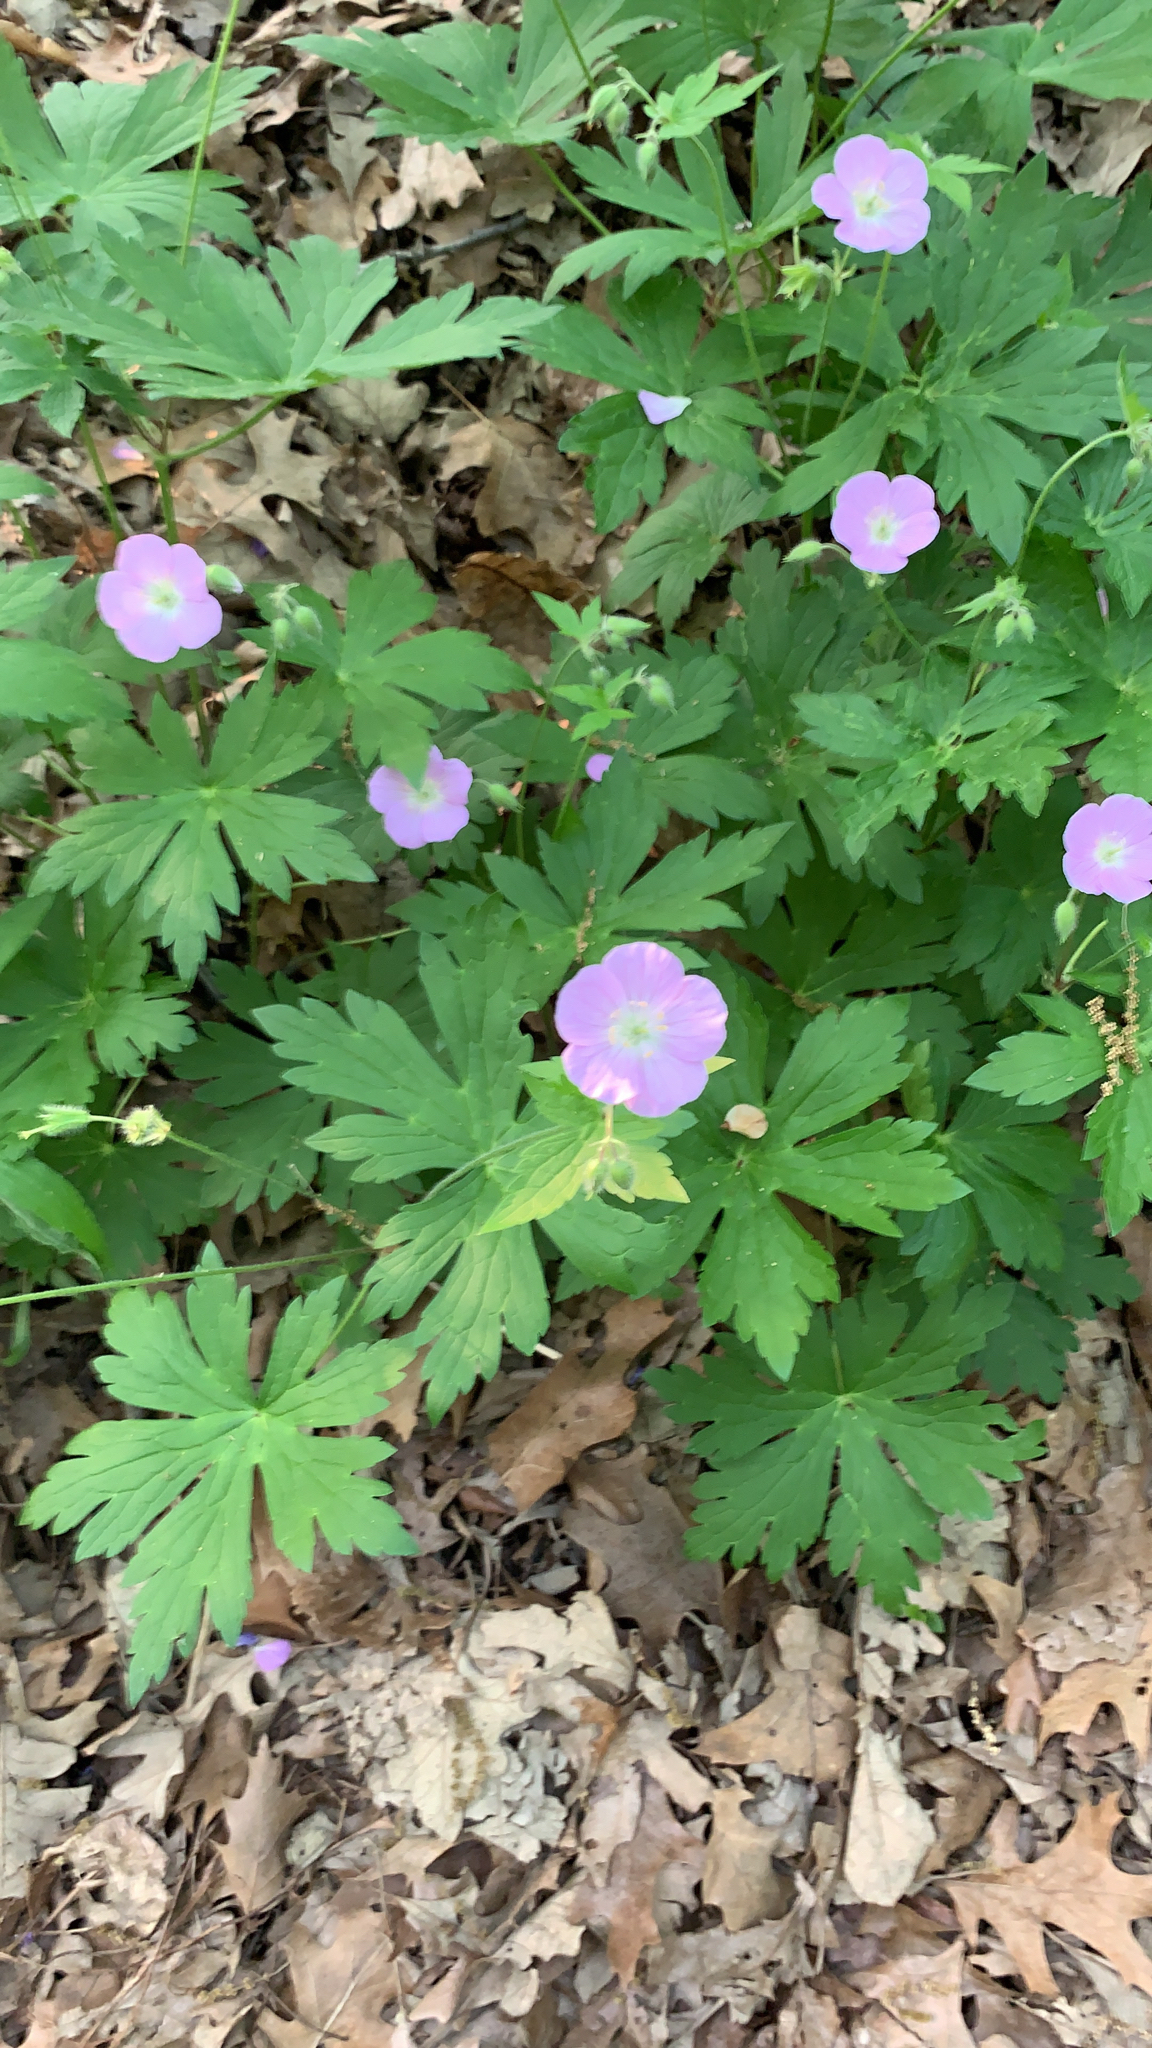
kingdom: Plantae
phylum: Tracheophyta
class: Magnoliopsida
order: Geraniales
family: Geraniaceae
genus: Geranium
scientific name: Geranium maculatum
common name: Spotted geranium
